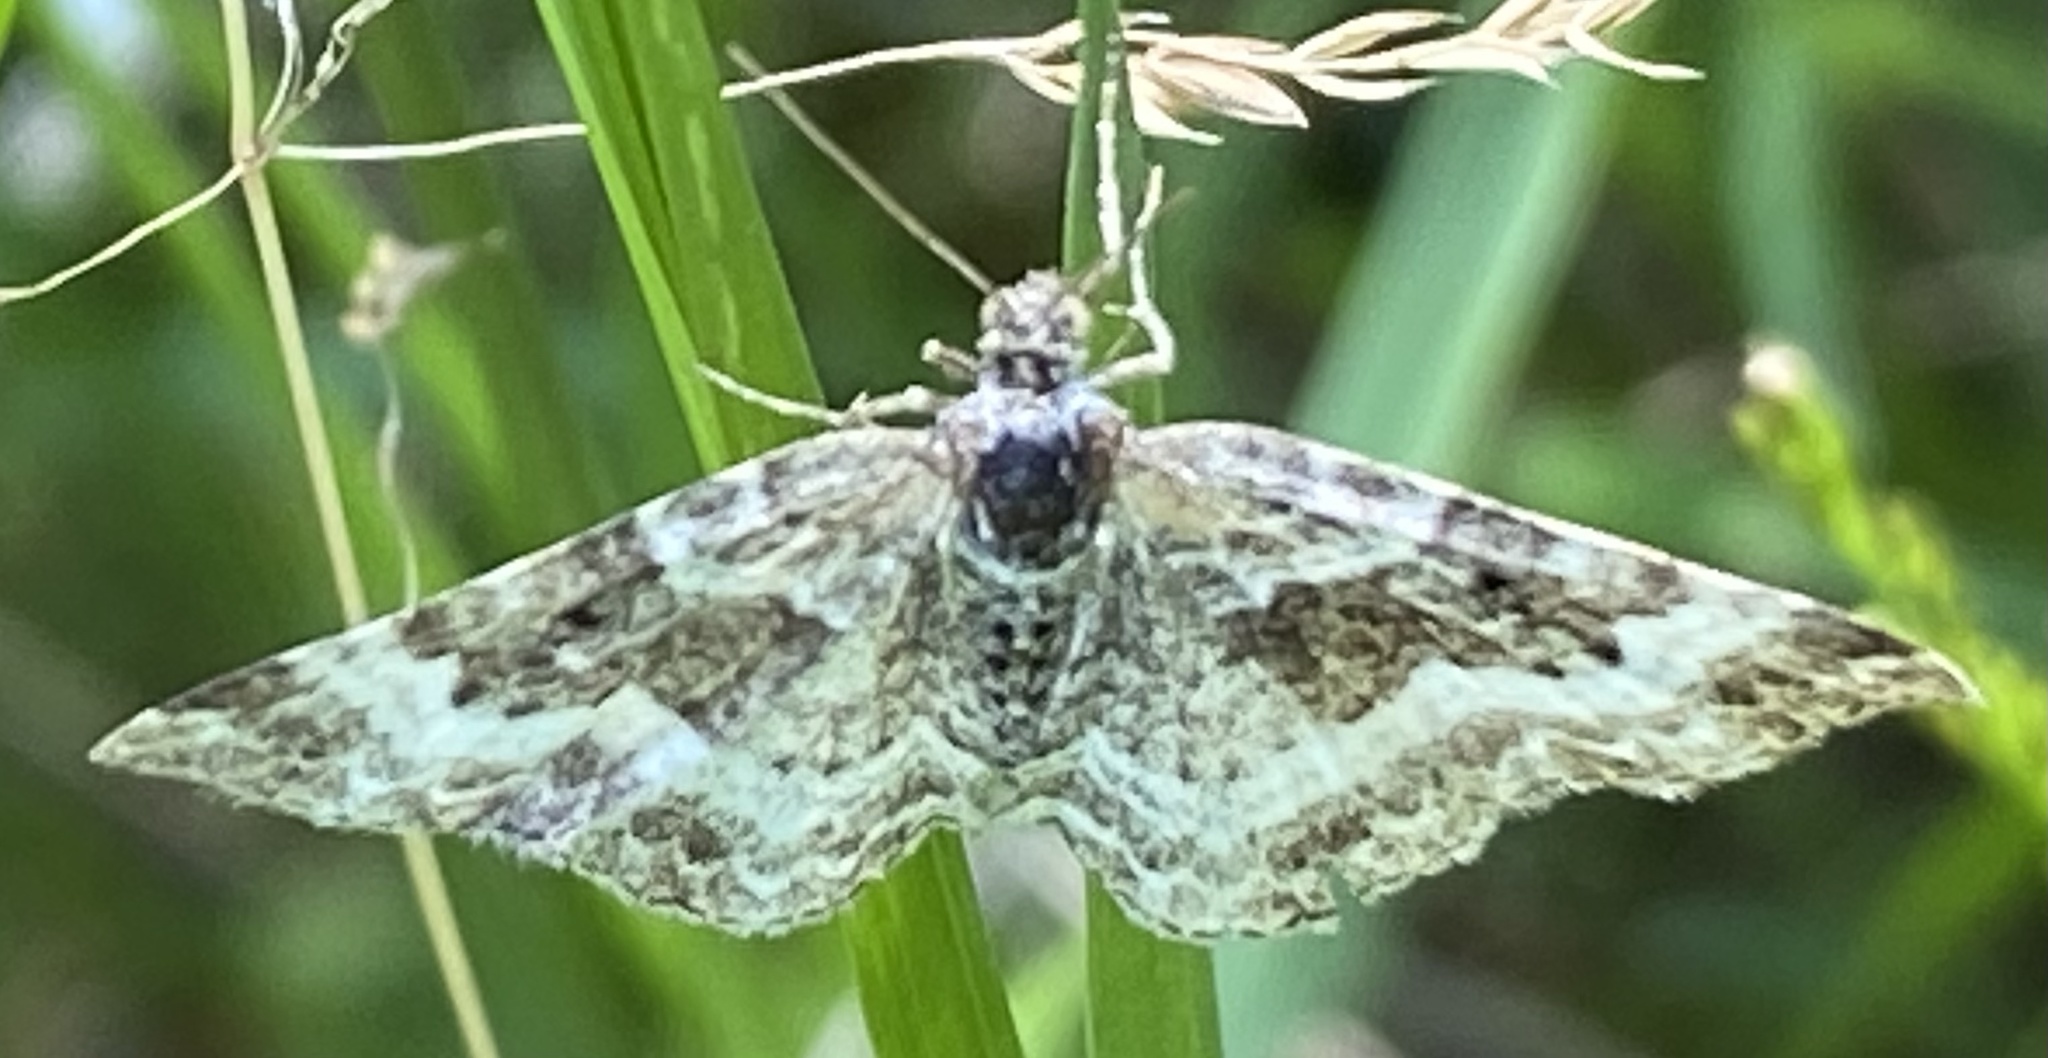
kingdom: Animalia
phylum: Arthropoda
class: Insecta
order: Lepidoptera
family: Geometridae
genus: Epirrhoe
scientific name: Epirrhoe alternata
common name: Common carpet
